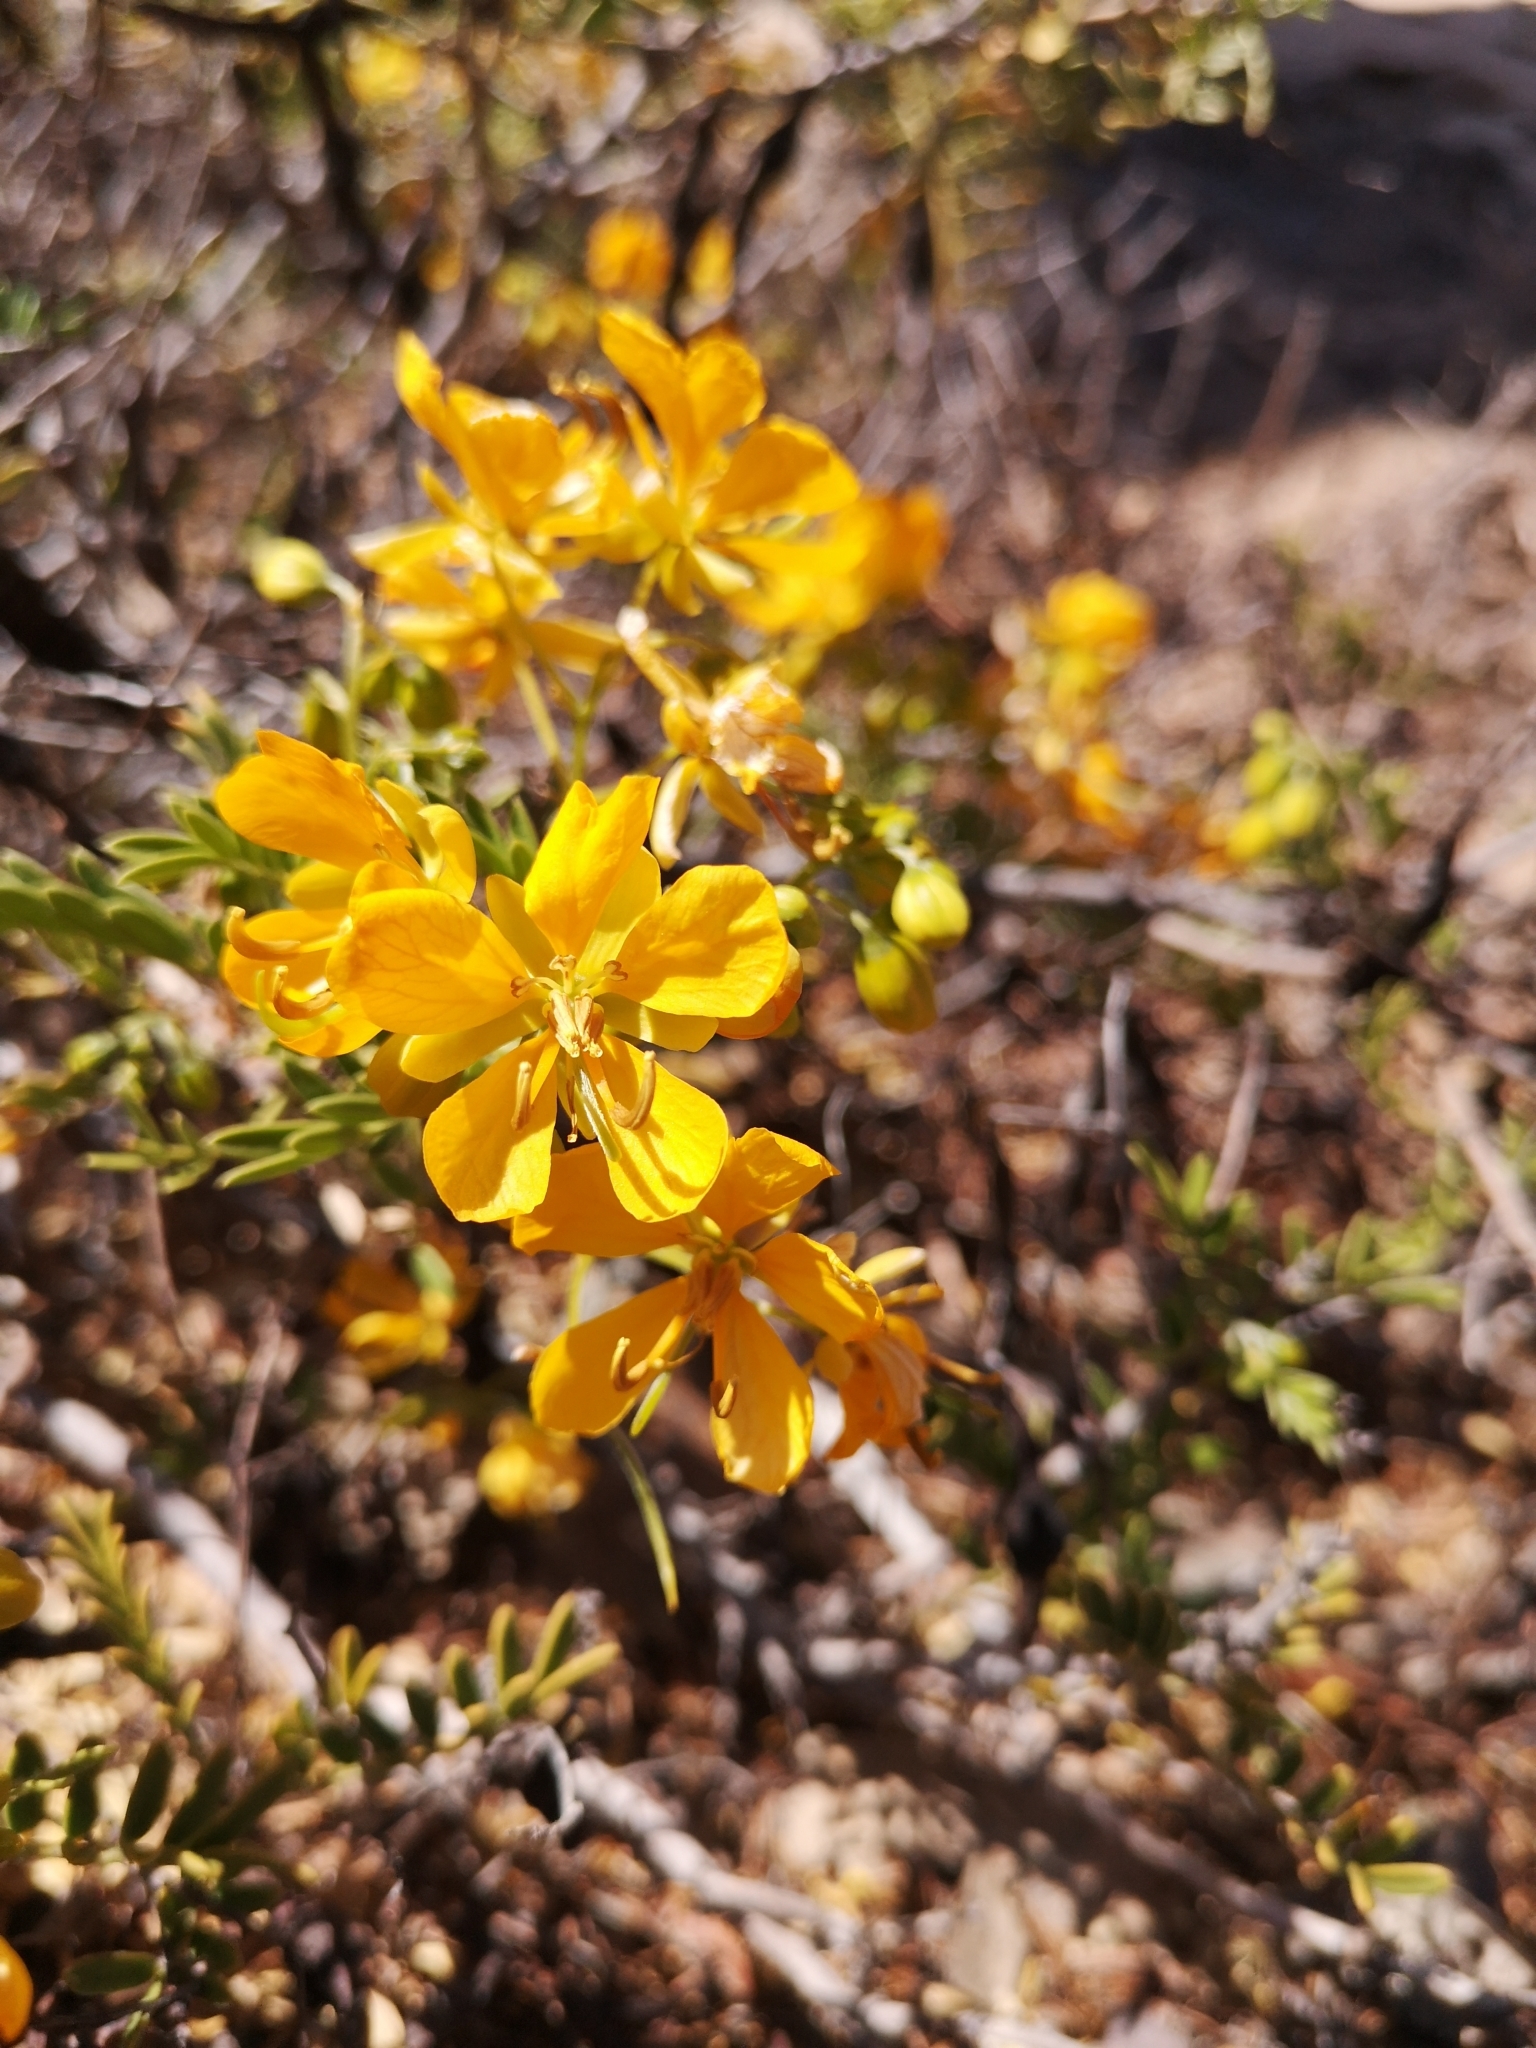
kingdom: Plantae
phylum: Tracheophyta
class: Magnoliopsida
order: Fabales
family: Fabaceae
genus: Senna
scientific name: Senna cumingii
